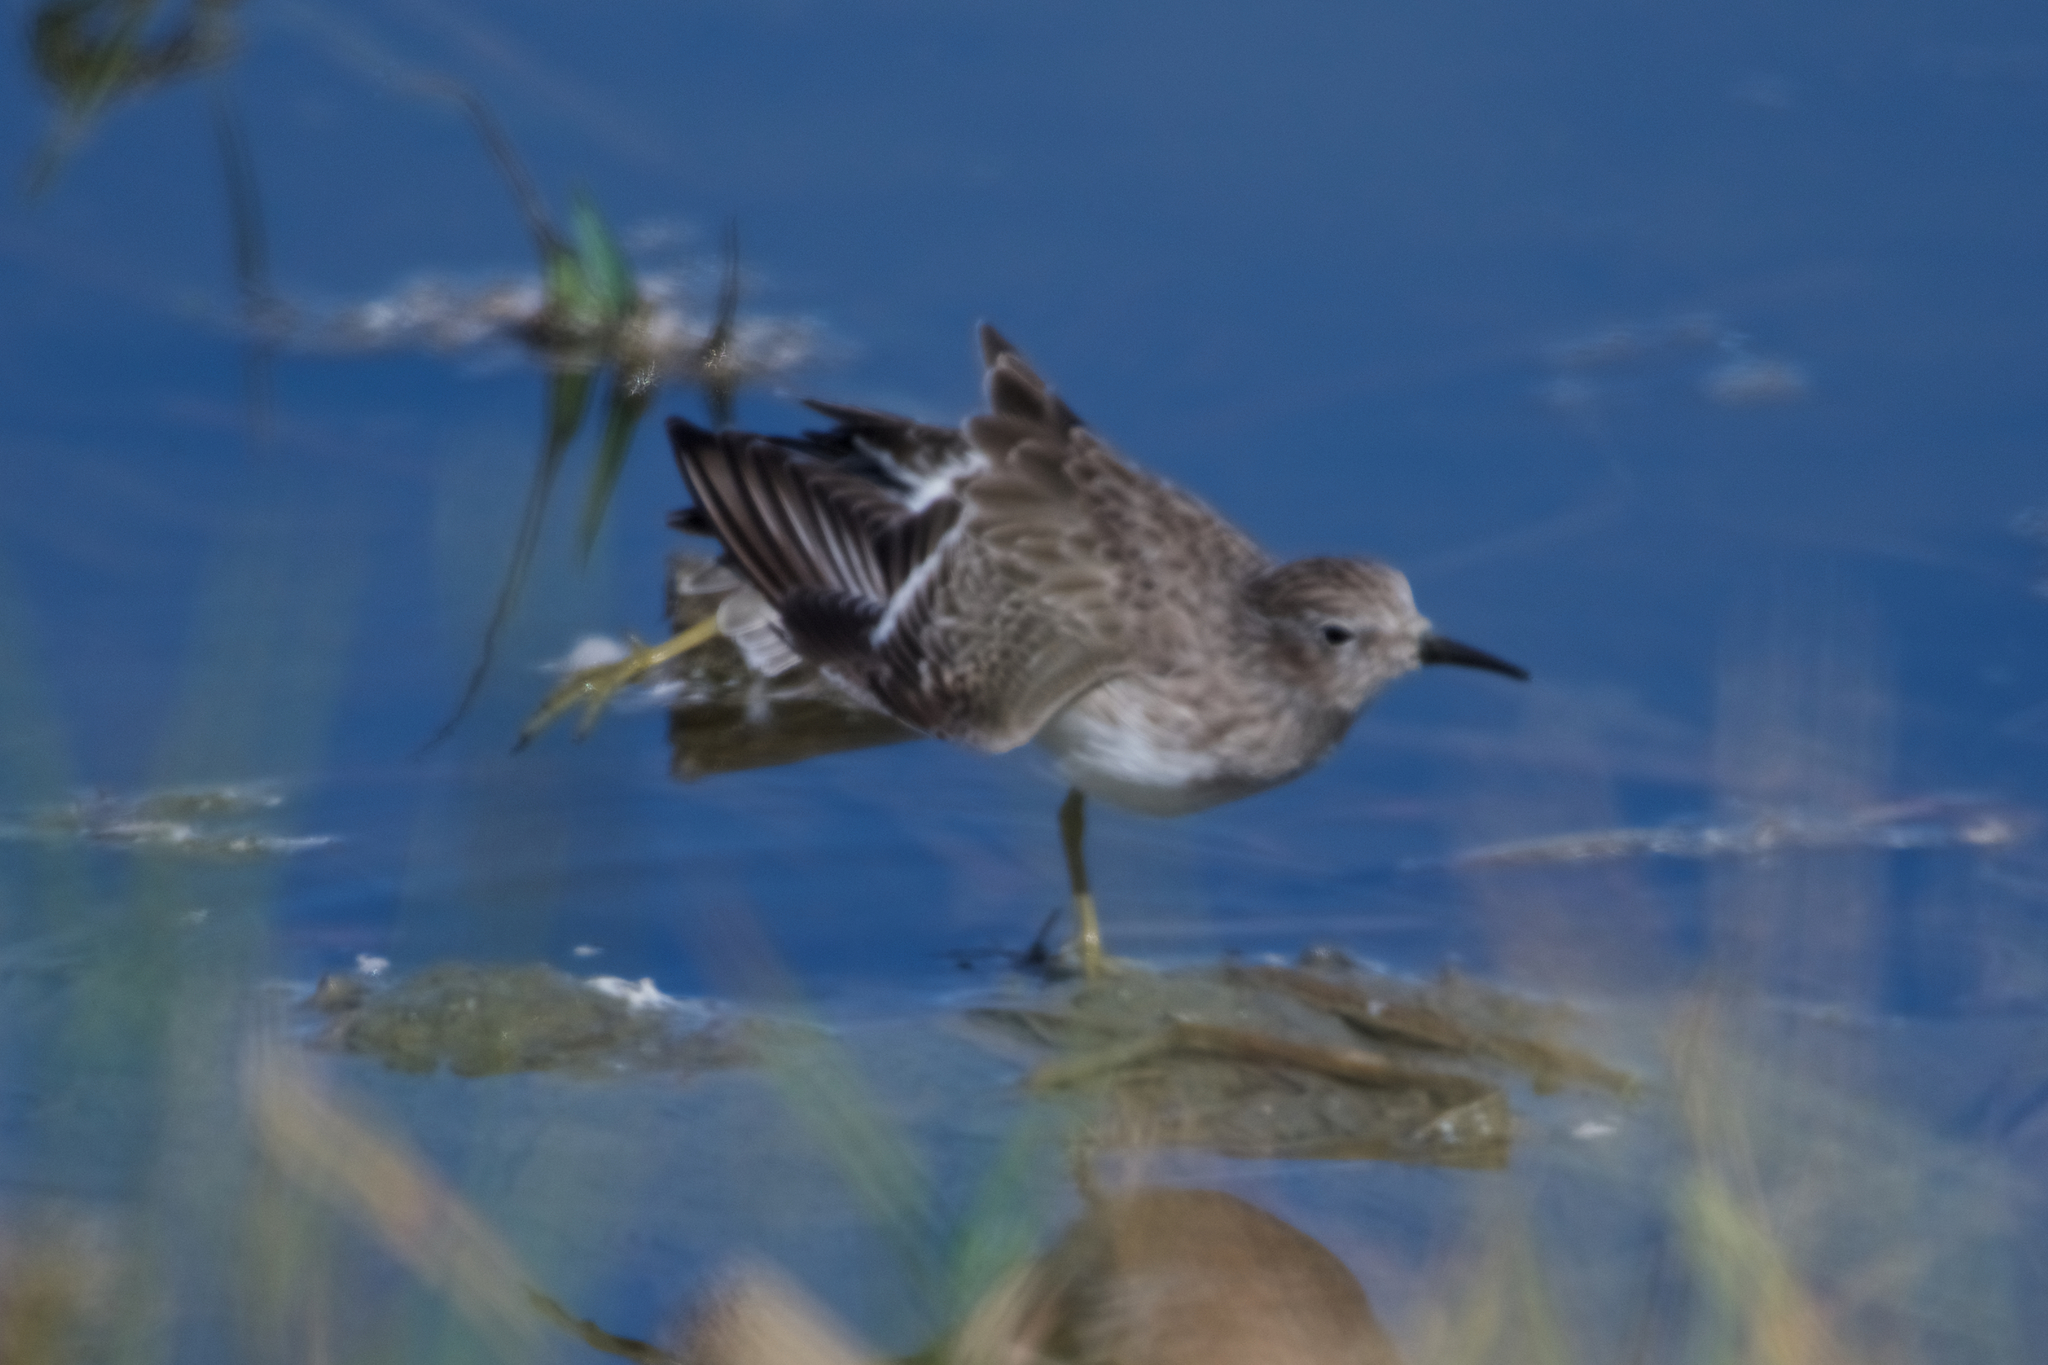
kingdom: Animalia
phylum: Chordata
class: Aves
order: Charadriiformes
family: Scolopacidae
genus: Calidris
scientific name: Calidris minutilla
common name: Least sandpiper
